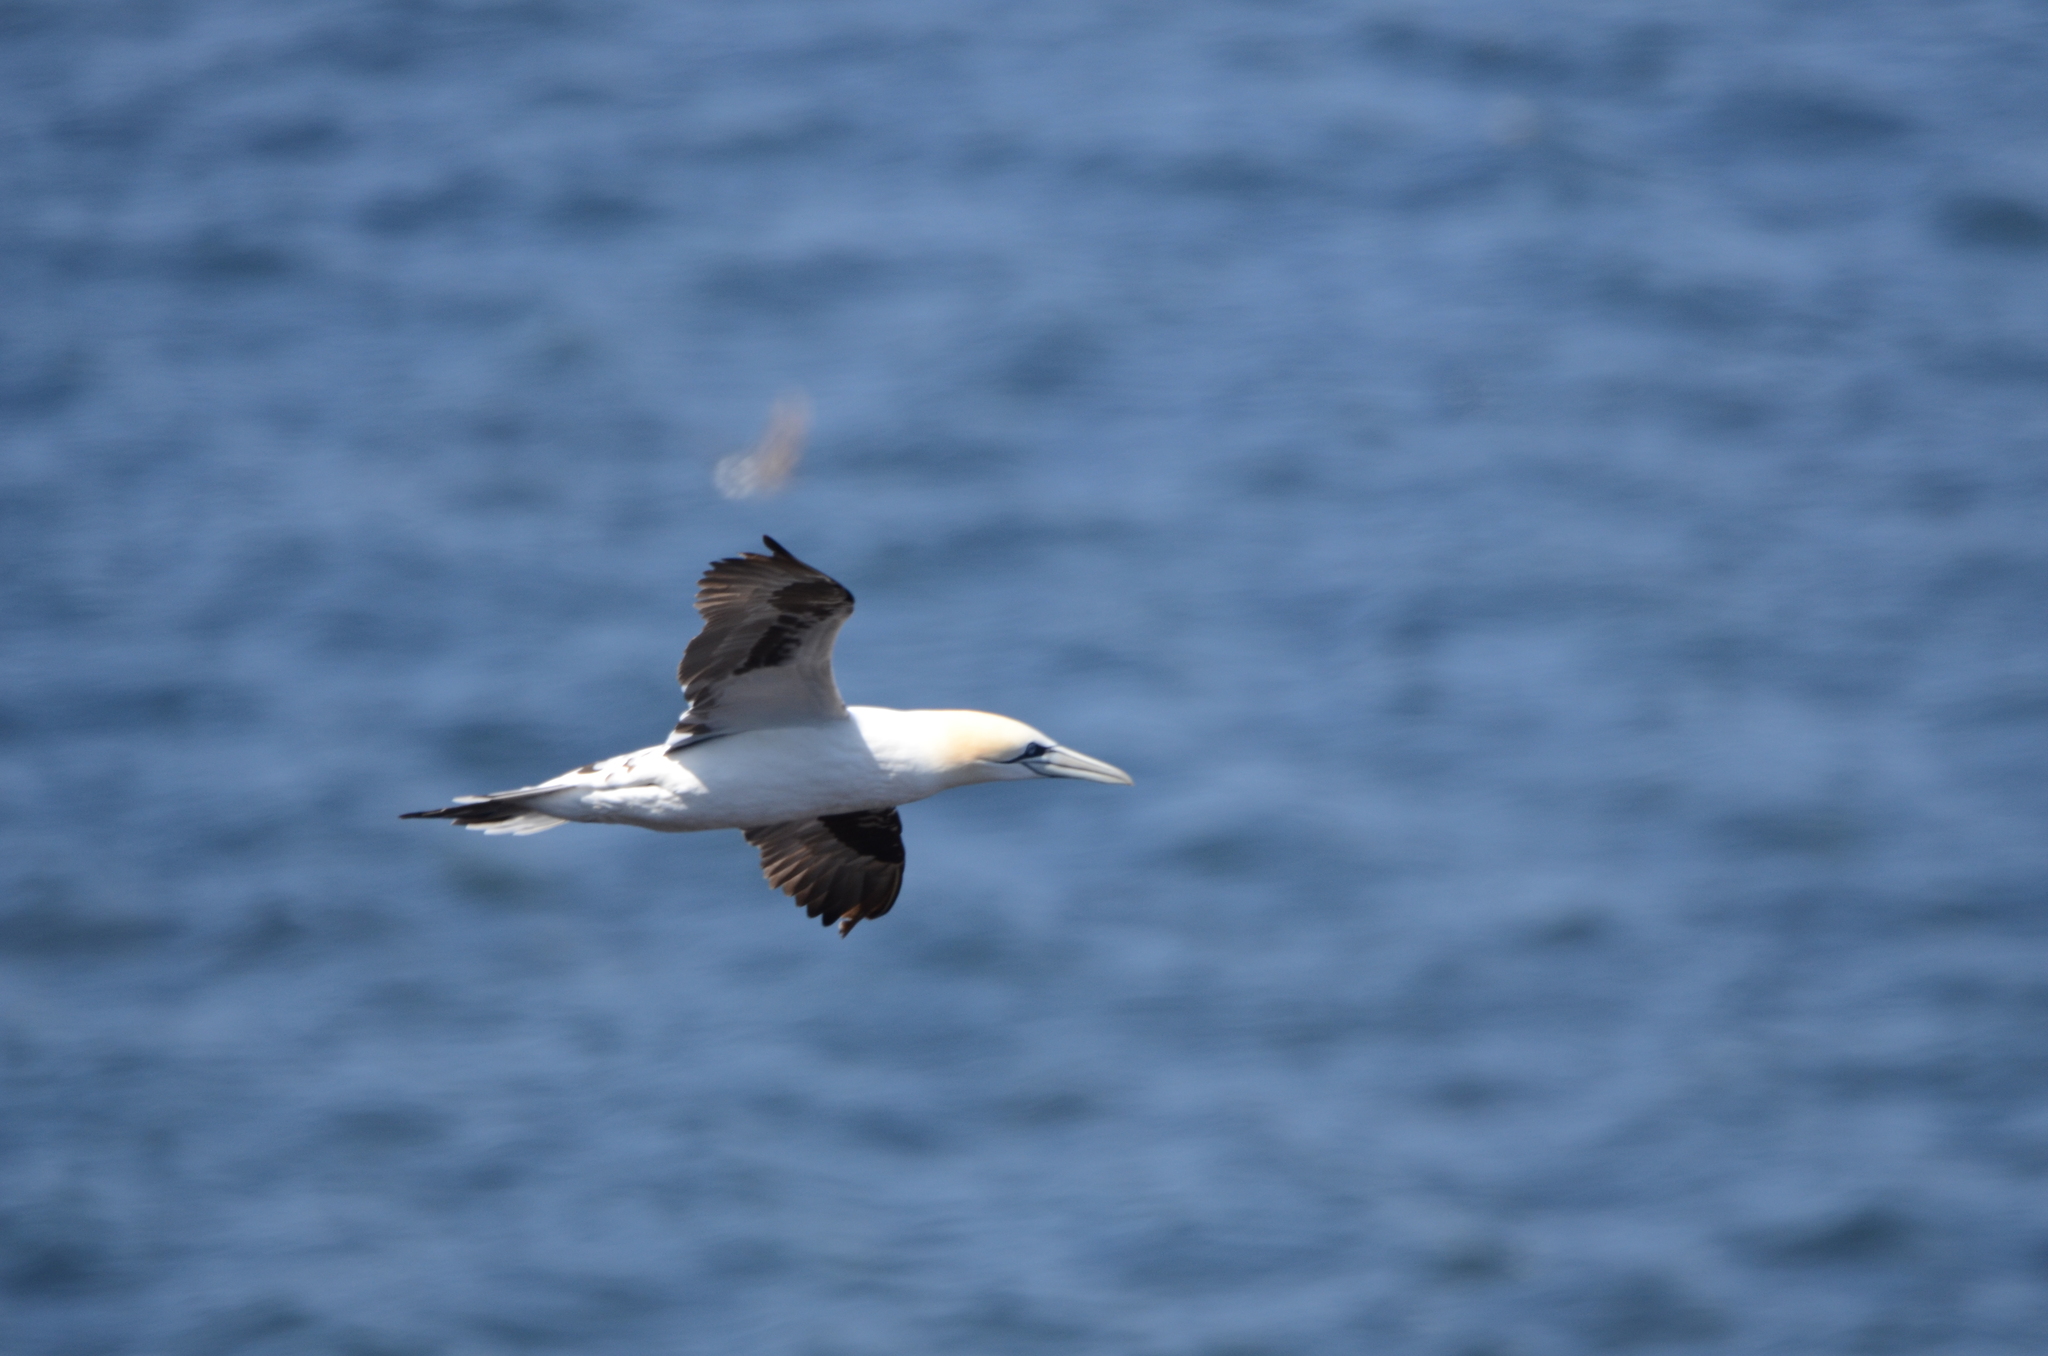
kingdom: Animalia
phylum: Chordata
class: Aves
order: Suliformes
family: Sulidae
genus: Morus
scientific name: Morus bassanus
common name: Northern gannet
